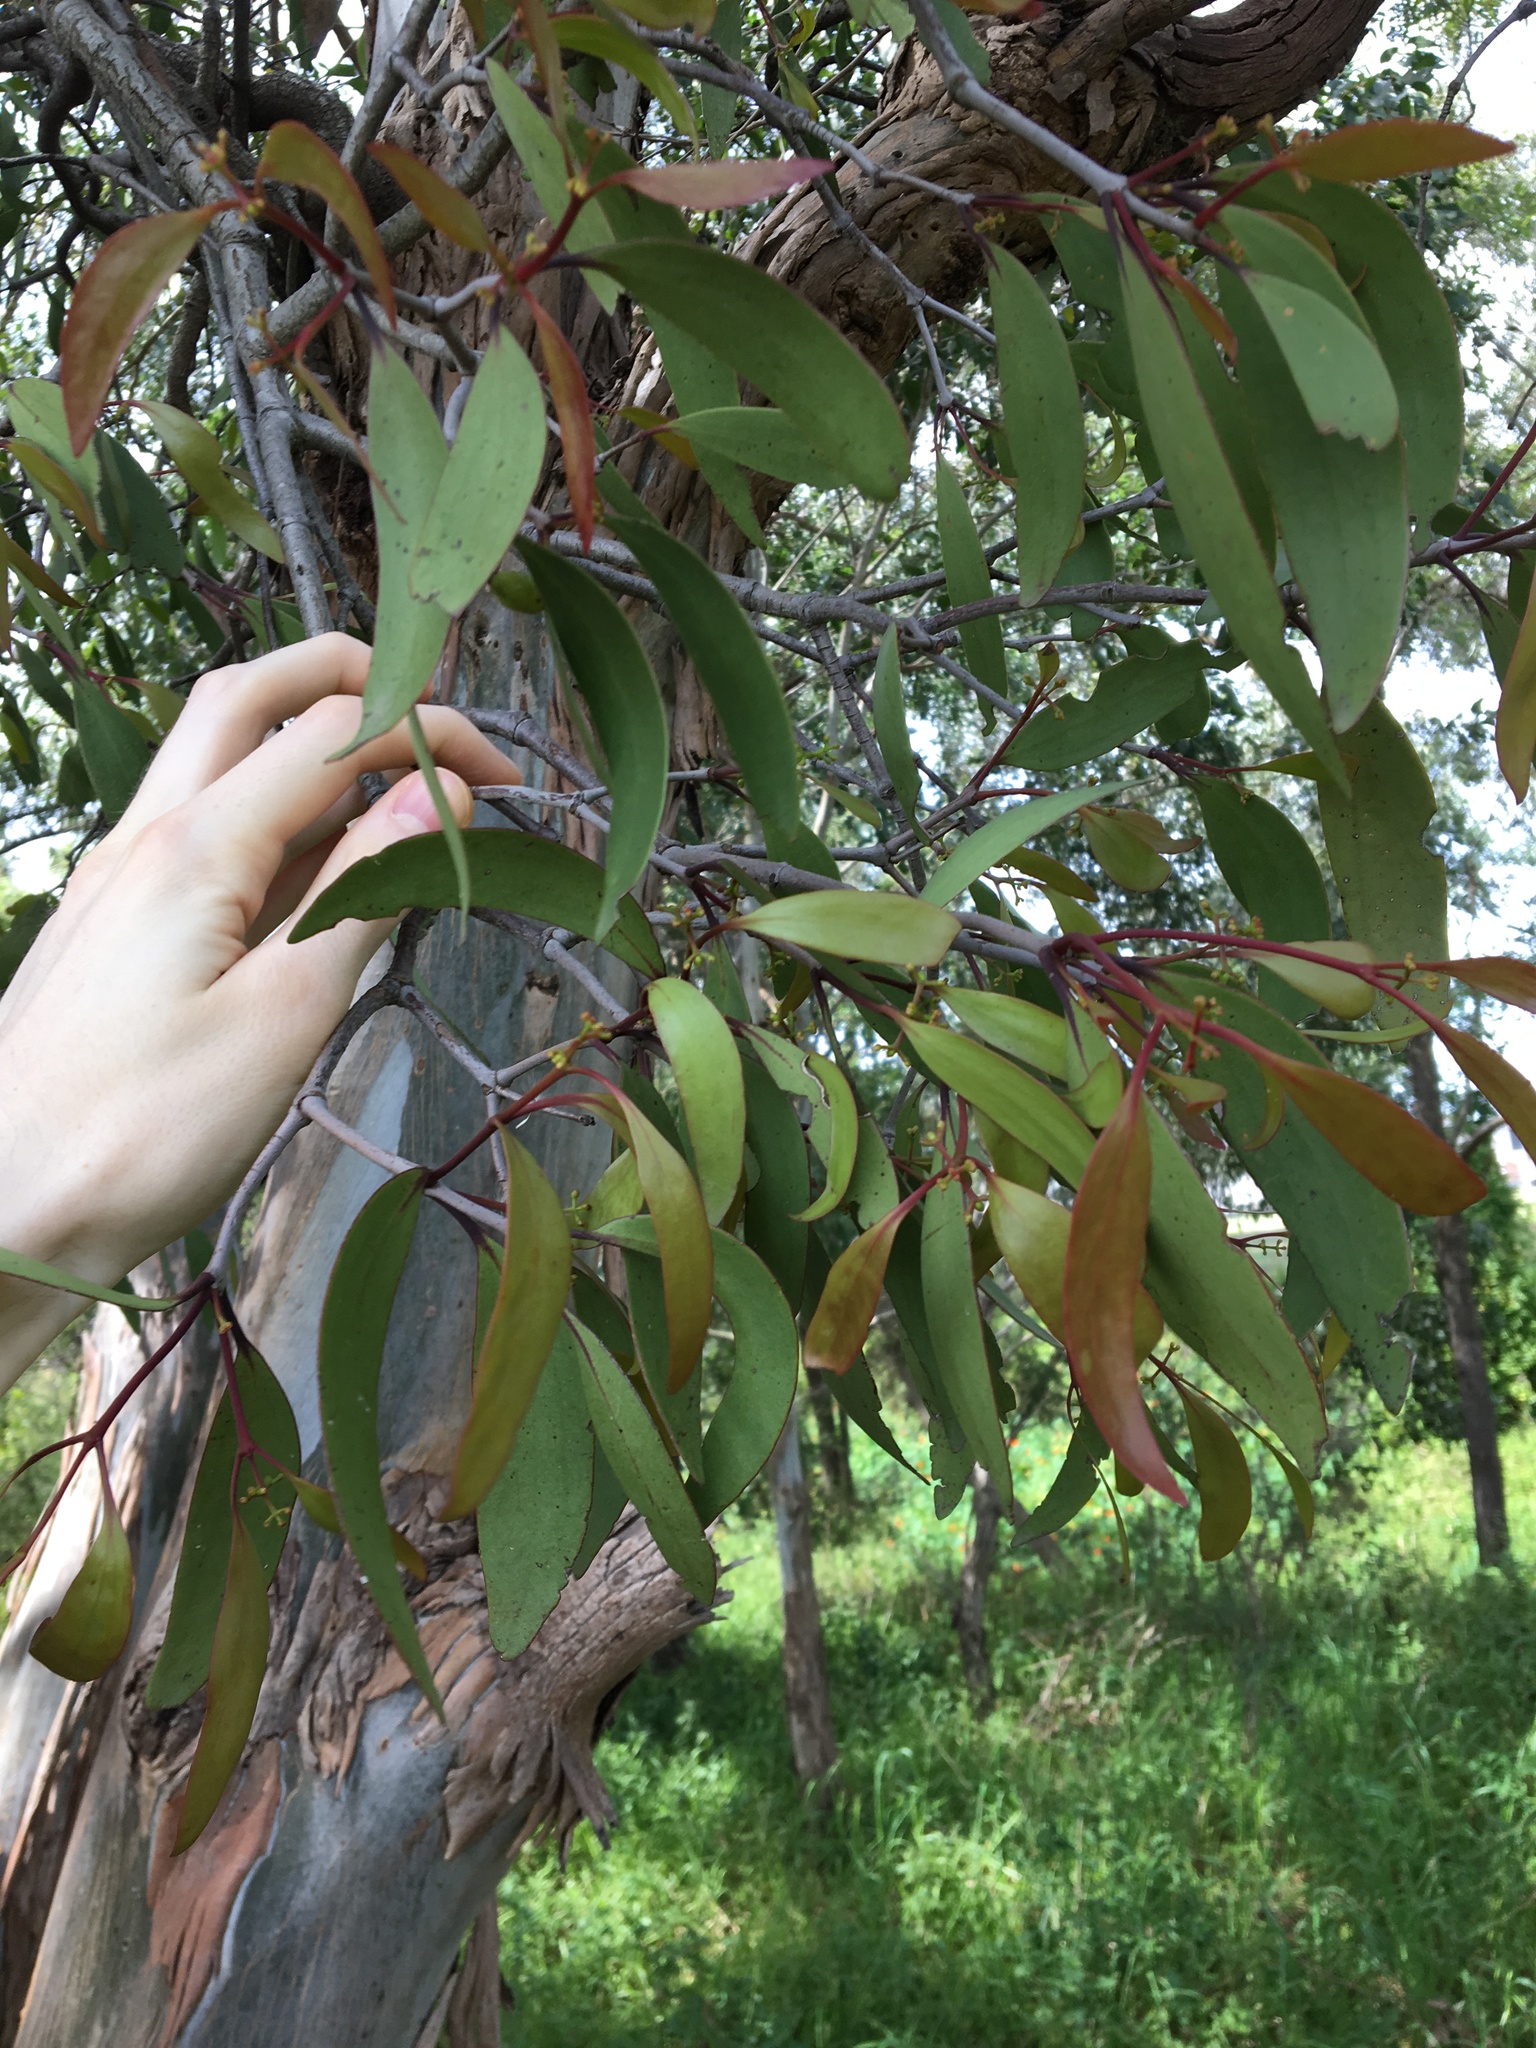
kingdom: Plantae
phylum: Tracheophyta
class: Magnoliopsida
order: Santalales
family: Loranthaceae
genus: Muellerina
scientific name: Muellerina eucalyptoides
